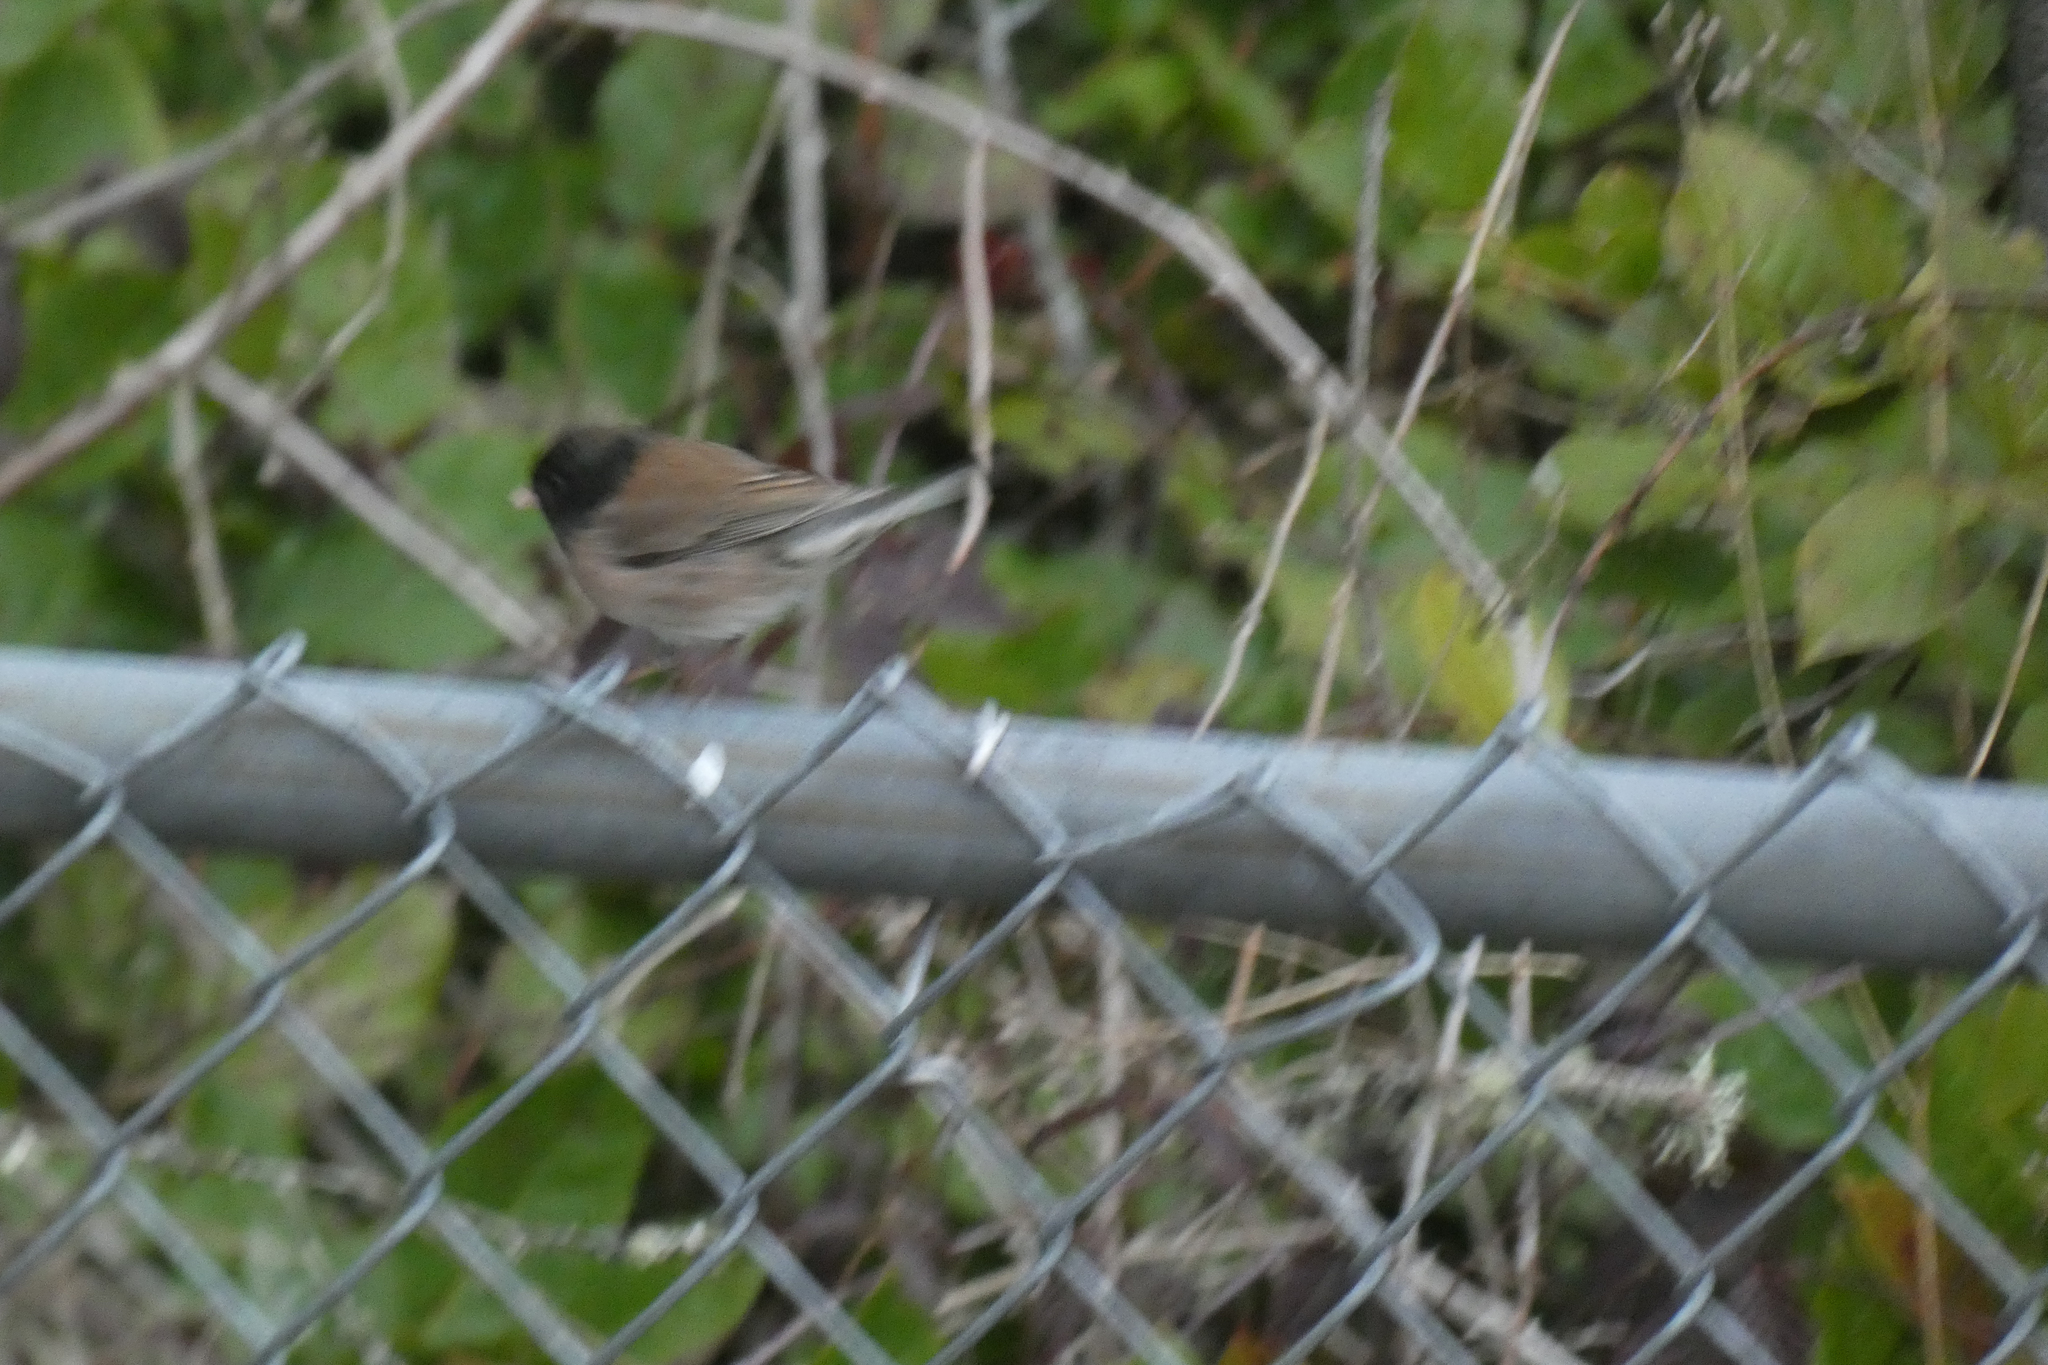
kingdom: Animalia
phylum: Chordata
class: Aves
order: Passeriformes
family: Passerellidae
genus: Junco
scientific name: Junco hyemalis
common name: Dark-eyed junco
